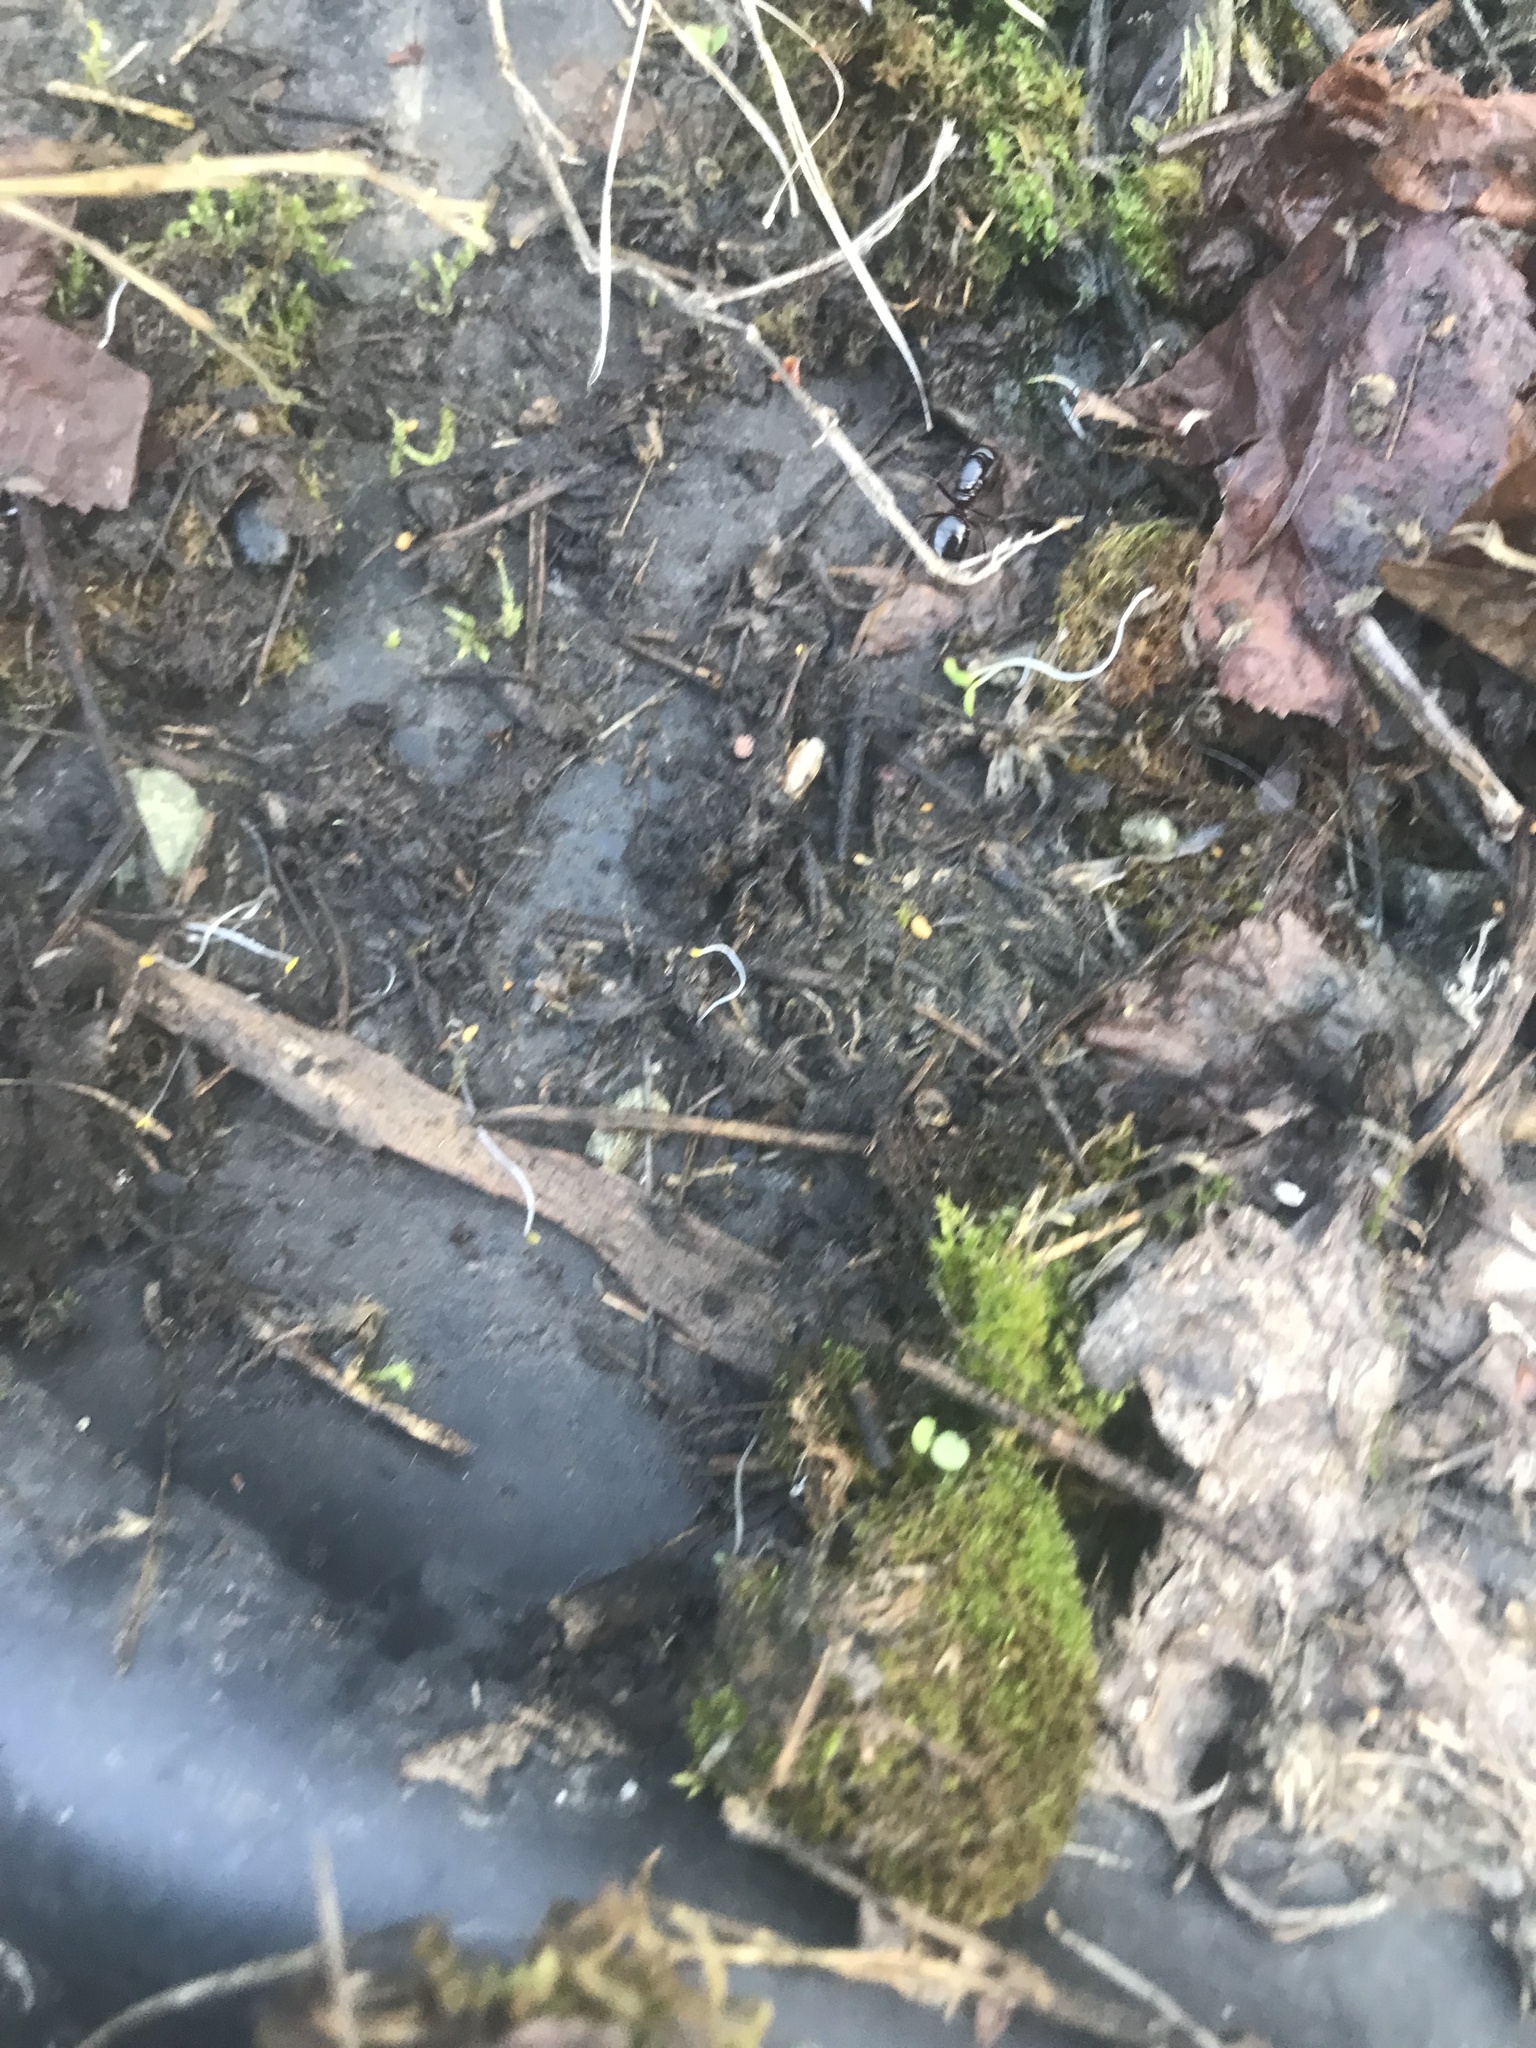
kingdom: Animalia
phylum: Arthropoda
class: Insecta
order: Hymenoptera
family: Formicidae
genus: Camponotus
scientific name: Camponotus
